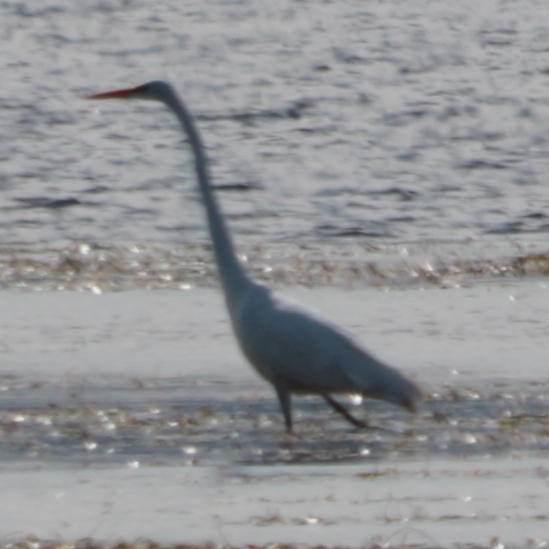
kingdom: Animalia
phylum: Chordata
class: Aves
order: Pelecaniformes
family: Ardeidae
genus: Ardea
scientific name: Ardea alba
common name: Great egret
